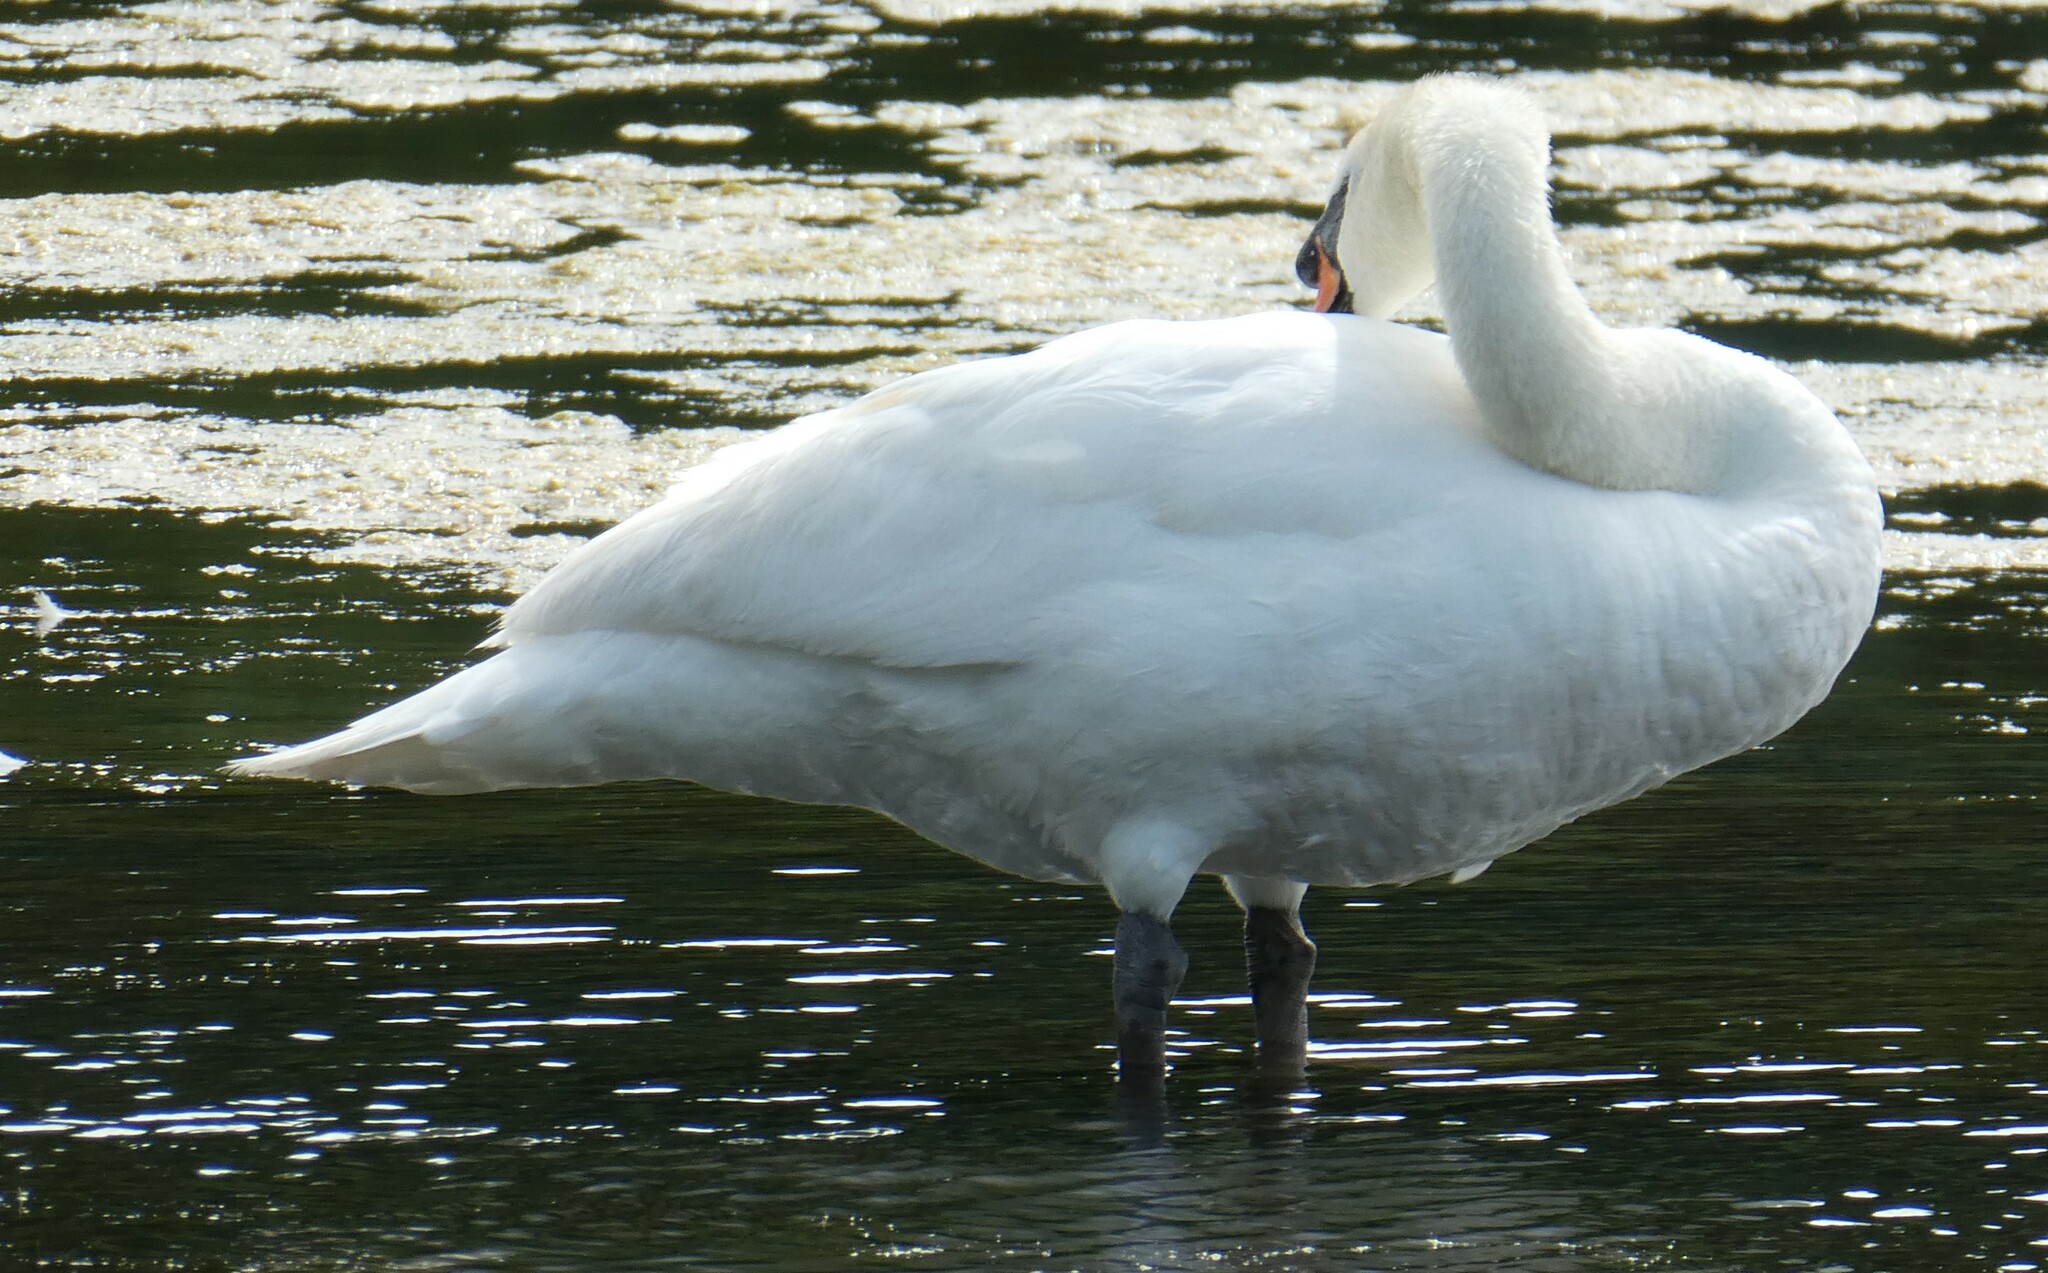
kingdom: Animalia
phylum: Chordata
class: Aves
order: Anseriformes
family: Anatidae
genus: Cygnus
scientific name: Cygnus olor
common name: Mute swan
